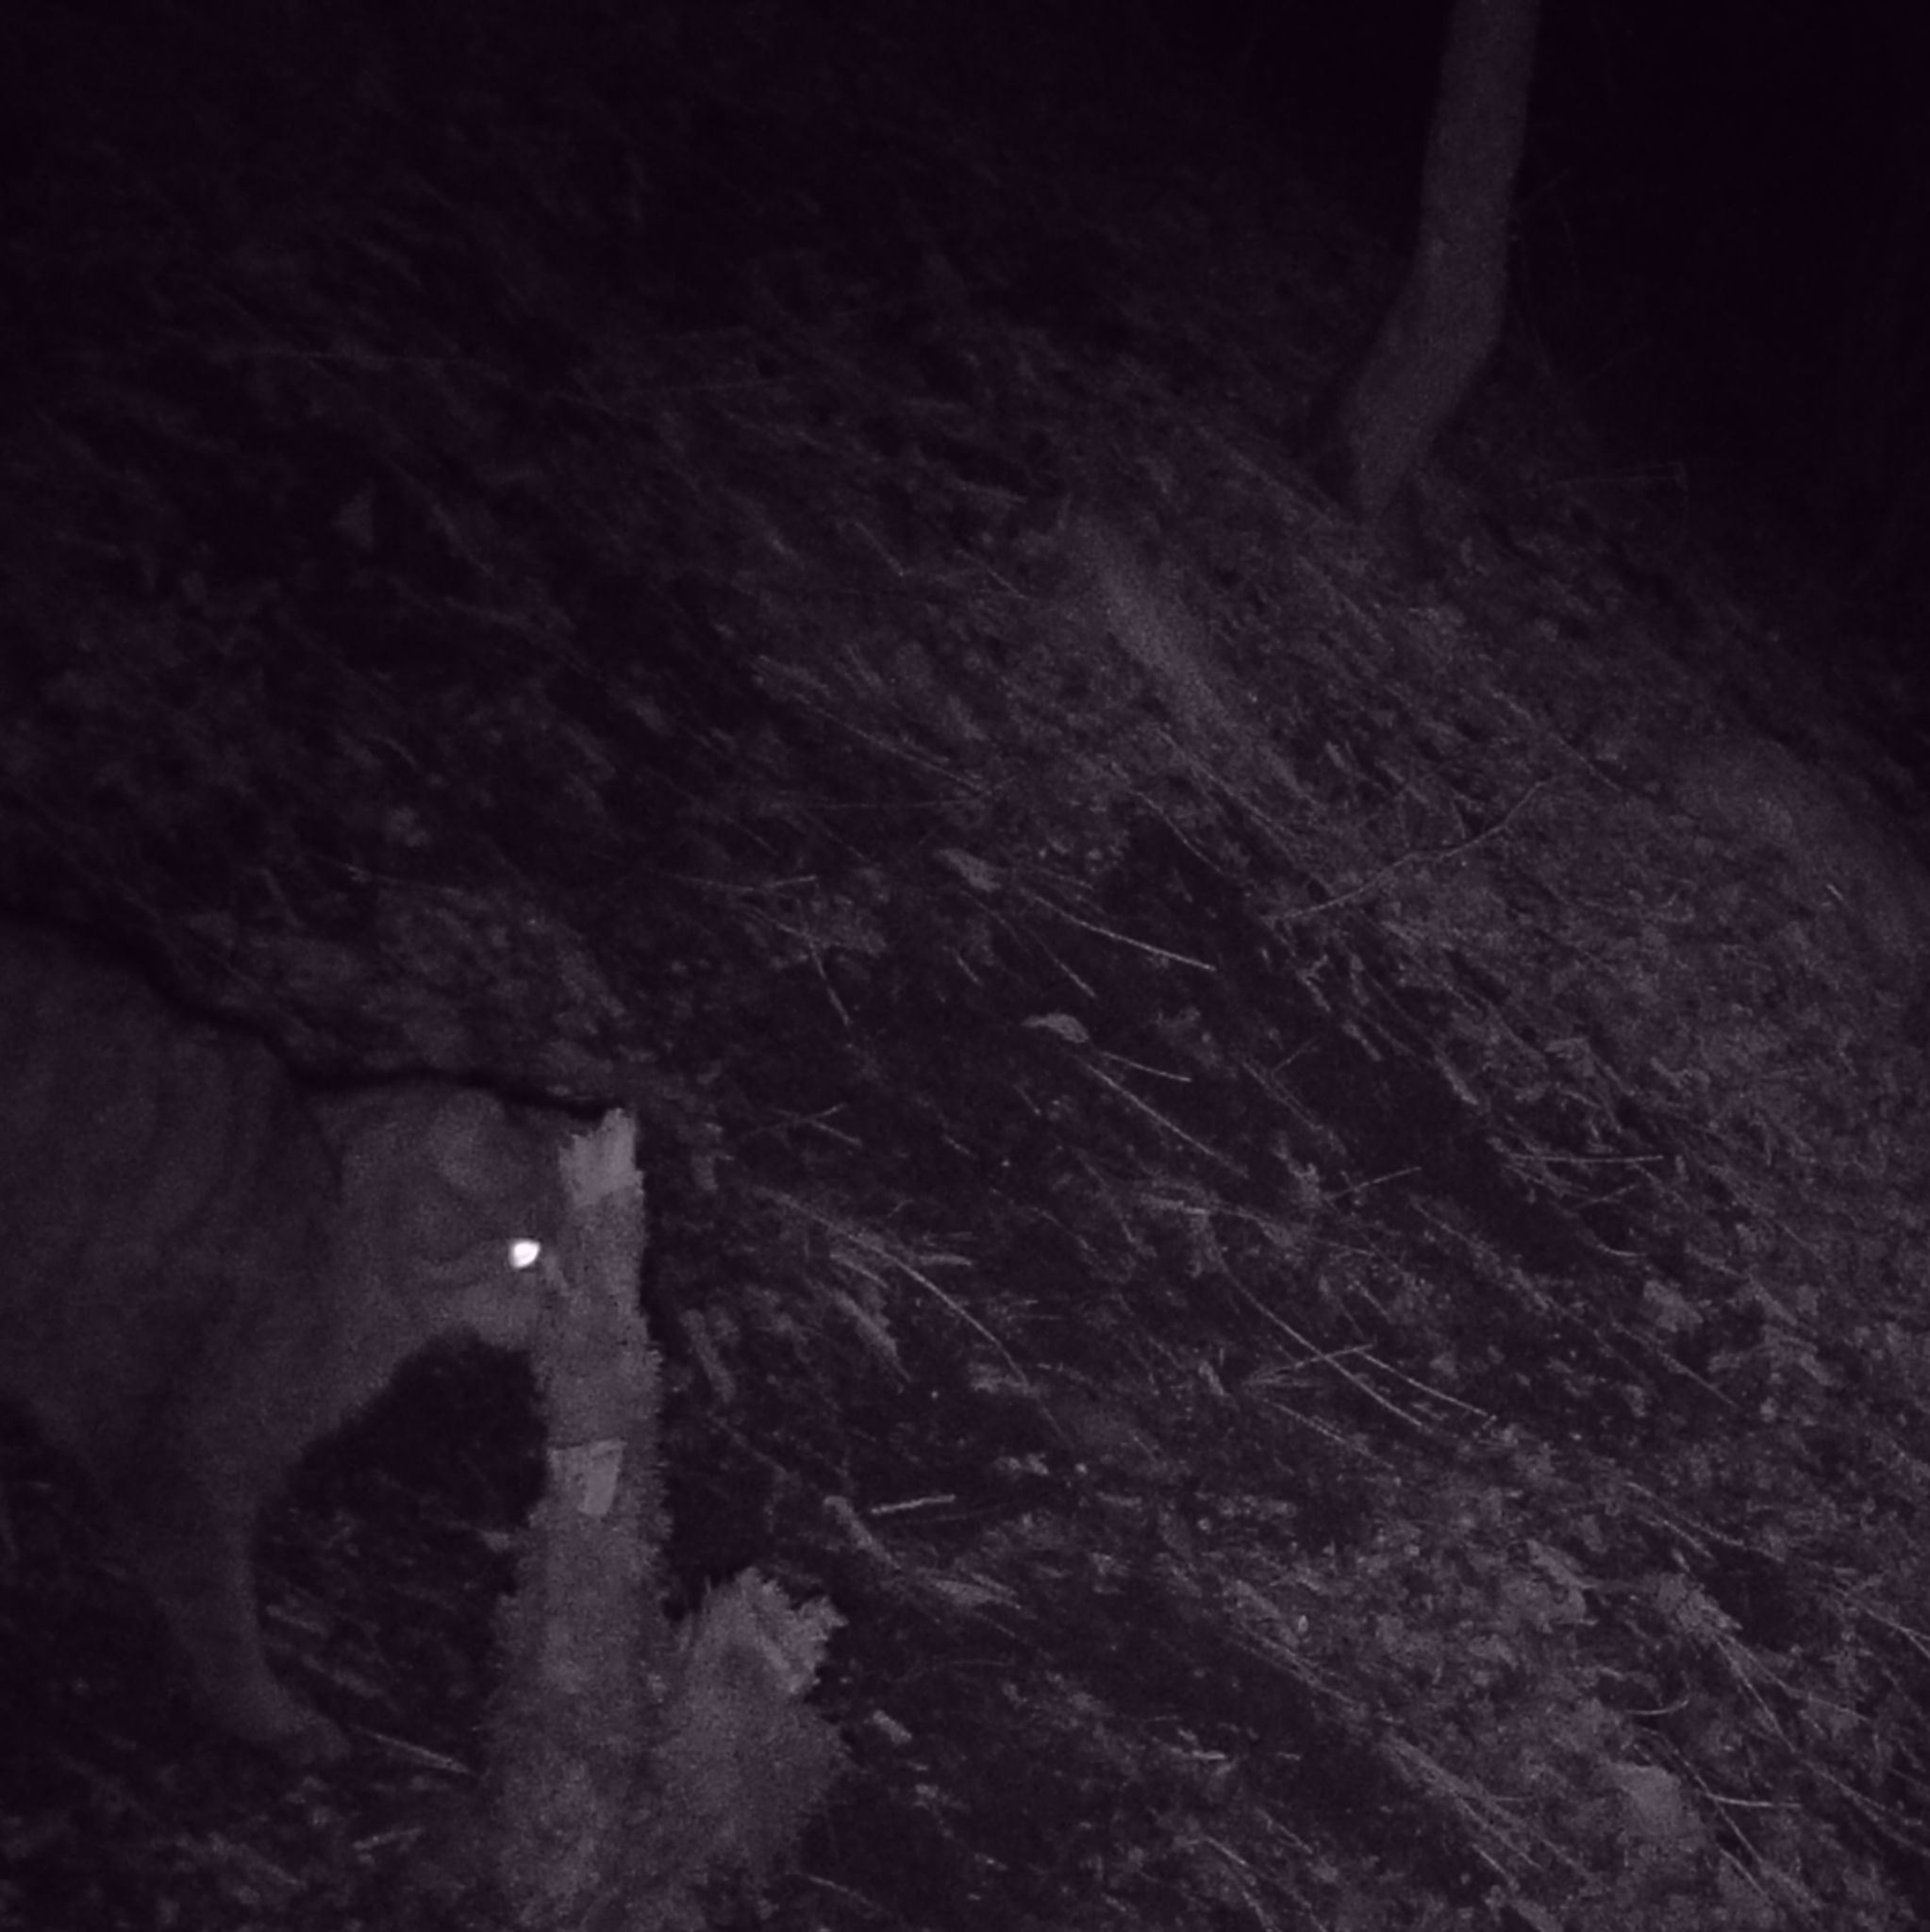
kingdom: Animalia
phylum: Chordata
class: Mammalia
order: Carnivora
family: Felidae
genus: Felis
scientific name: Felis silvestris
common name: Wildcat
